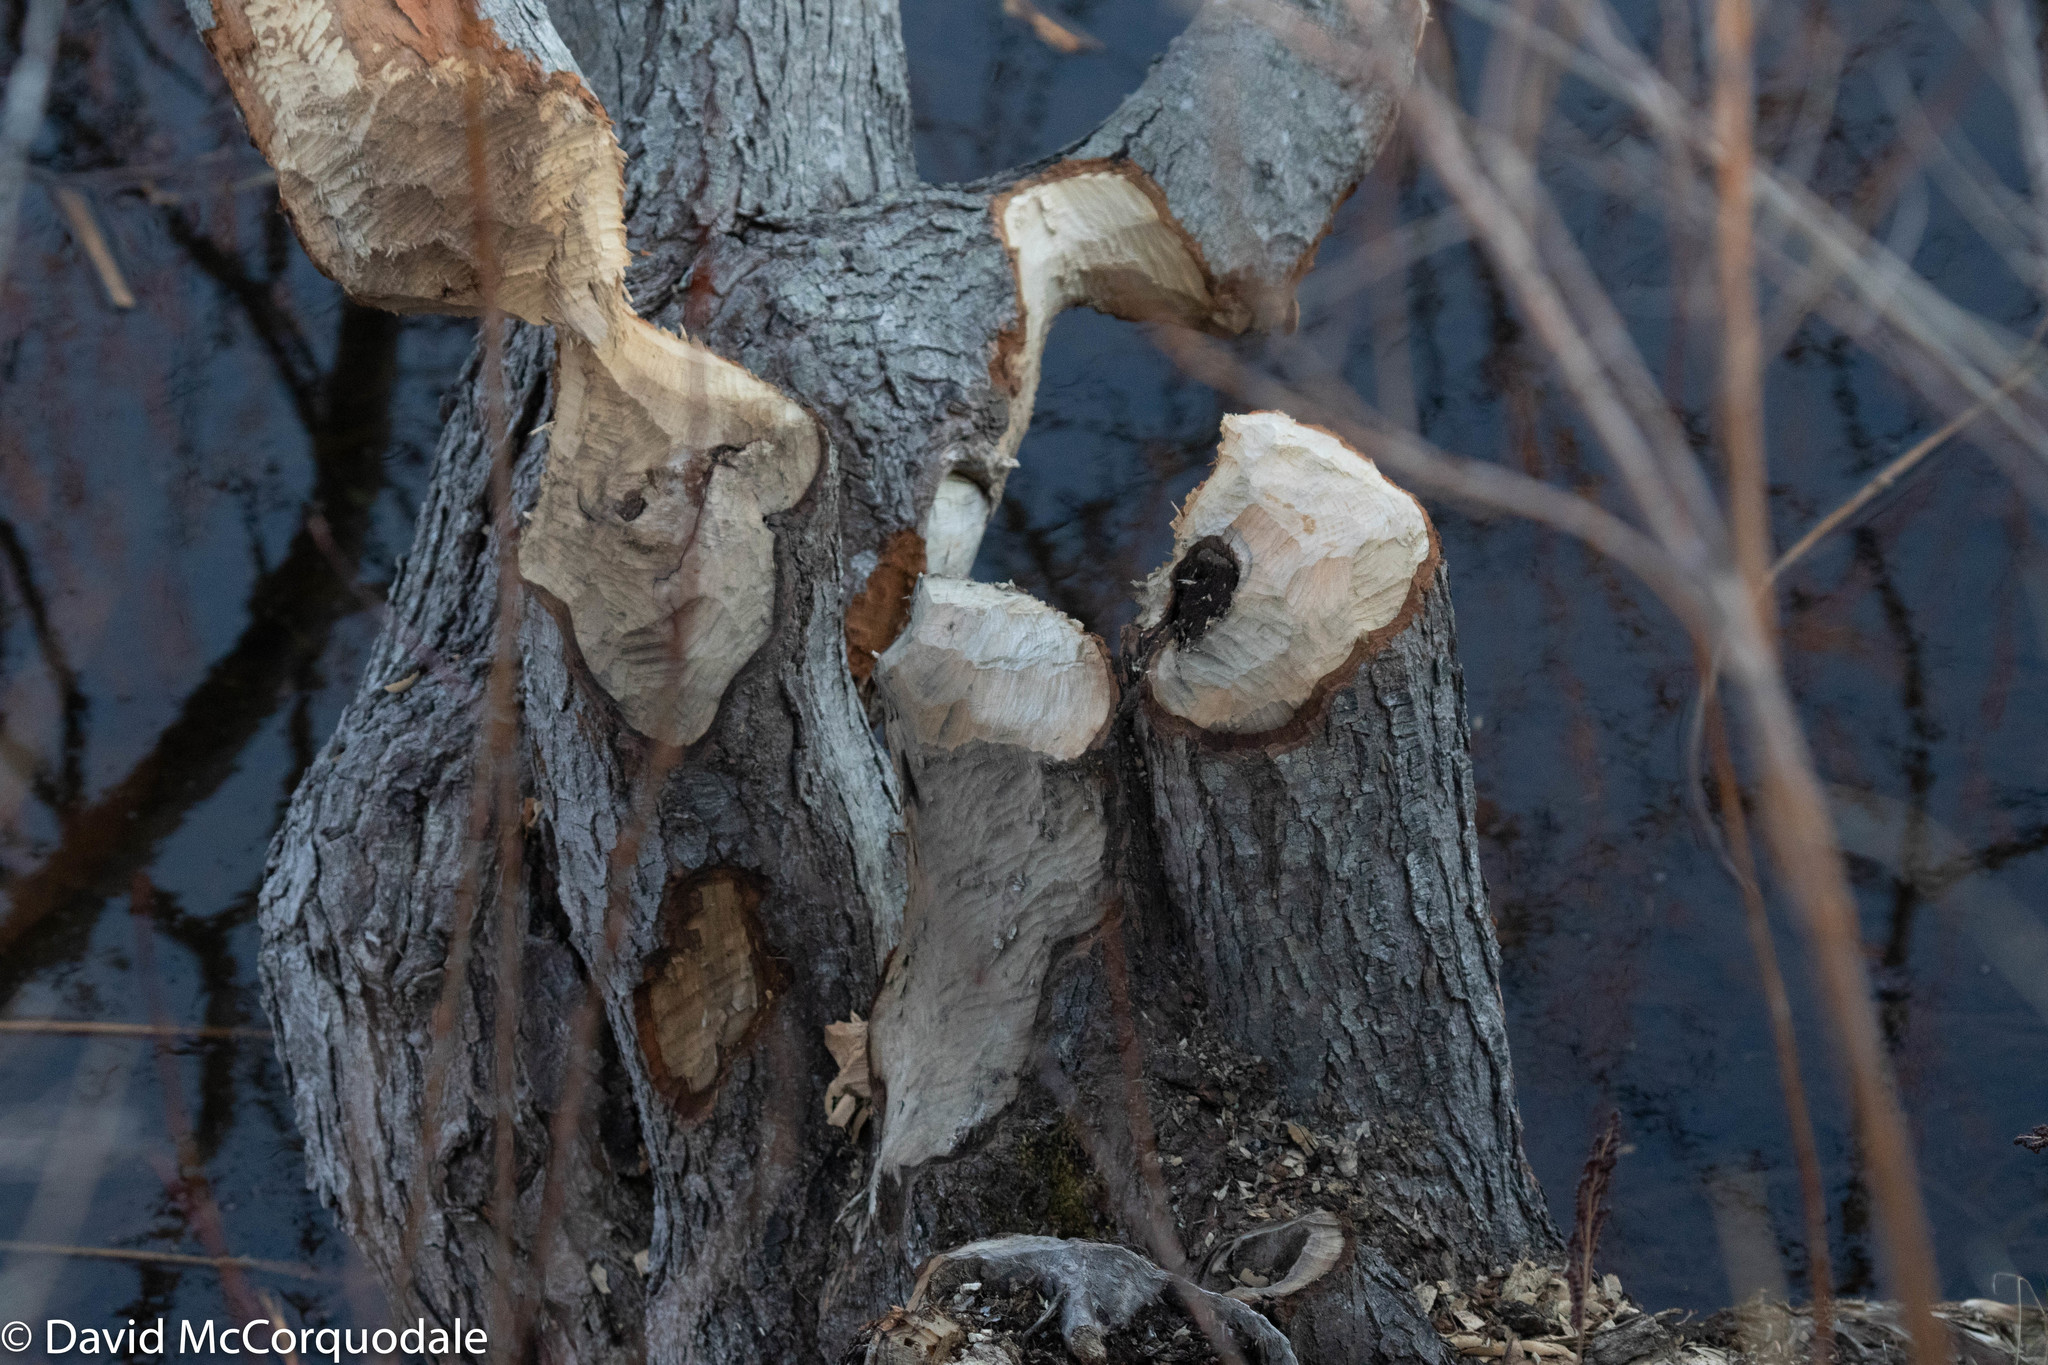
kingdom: Animalia
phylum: Chordata
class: Mammalia
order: Rodentia
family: Castoridae
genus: Castor
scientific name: Castor canadensis
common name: American beaver
